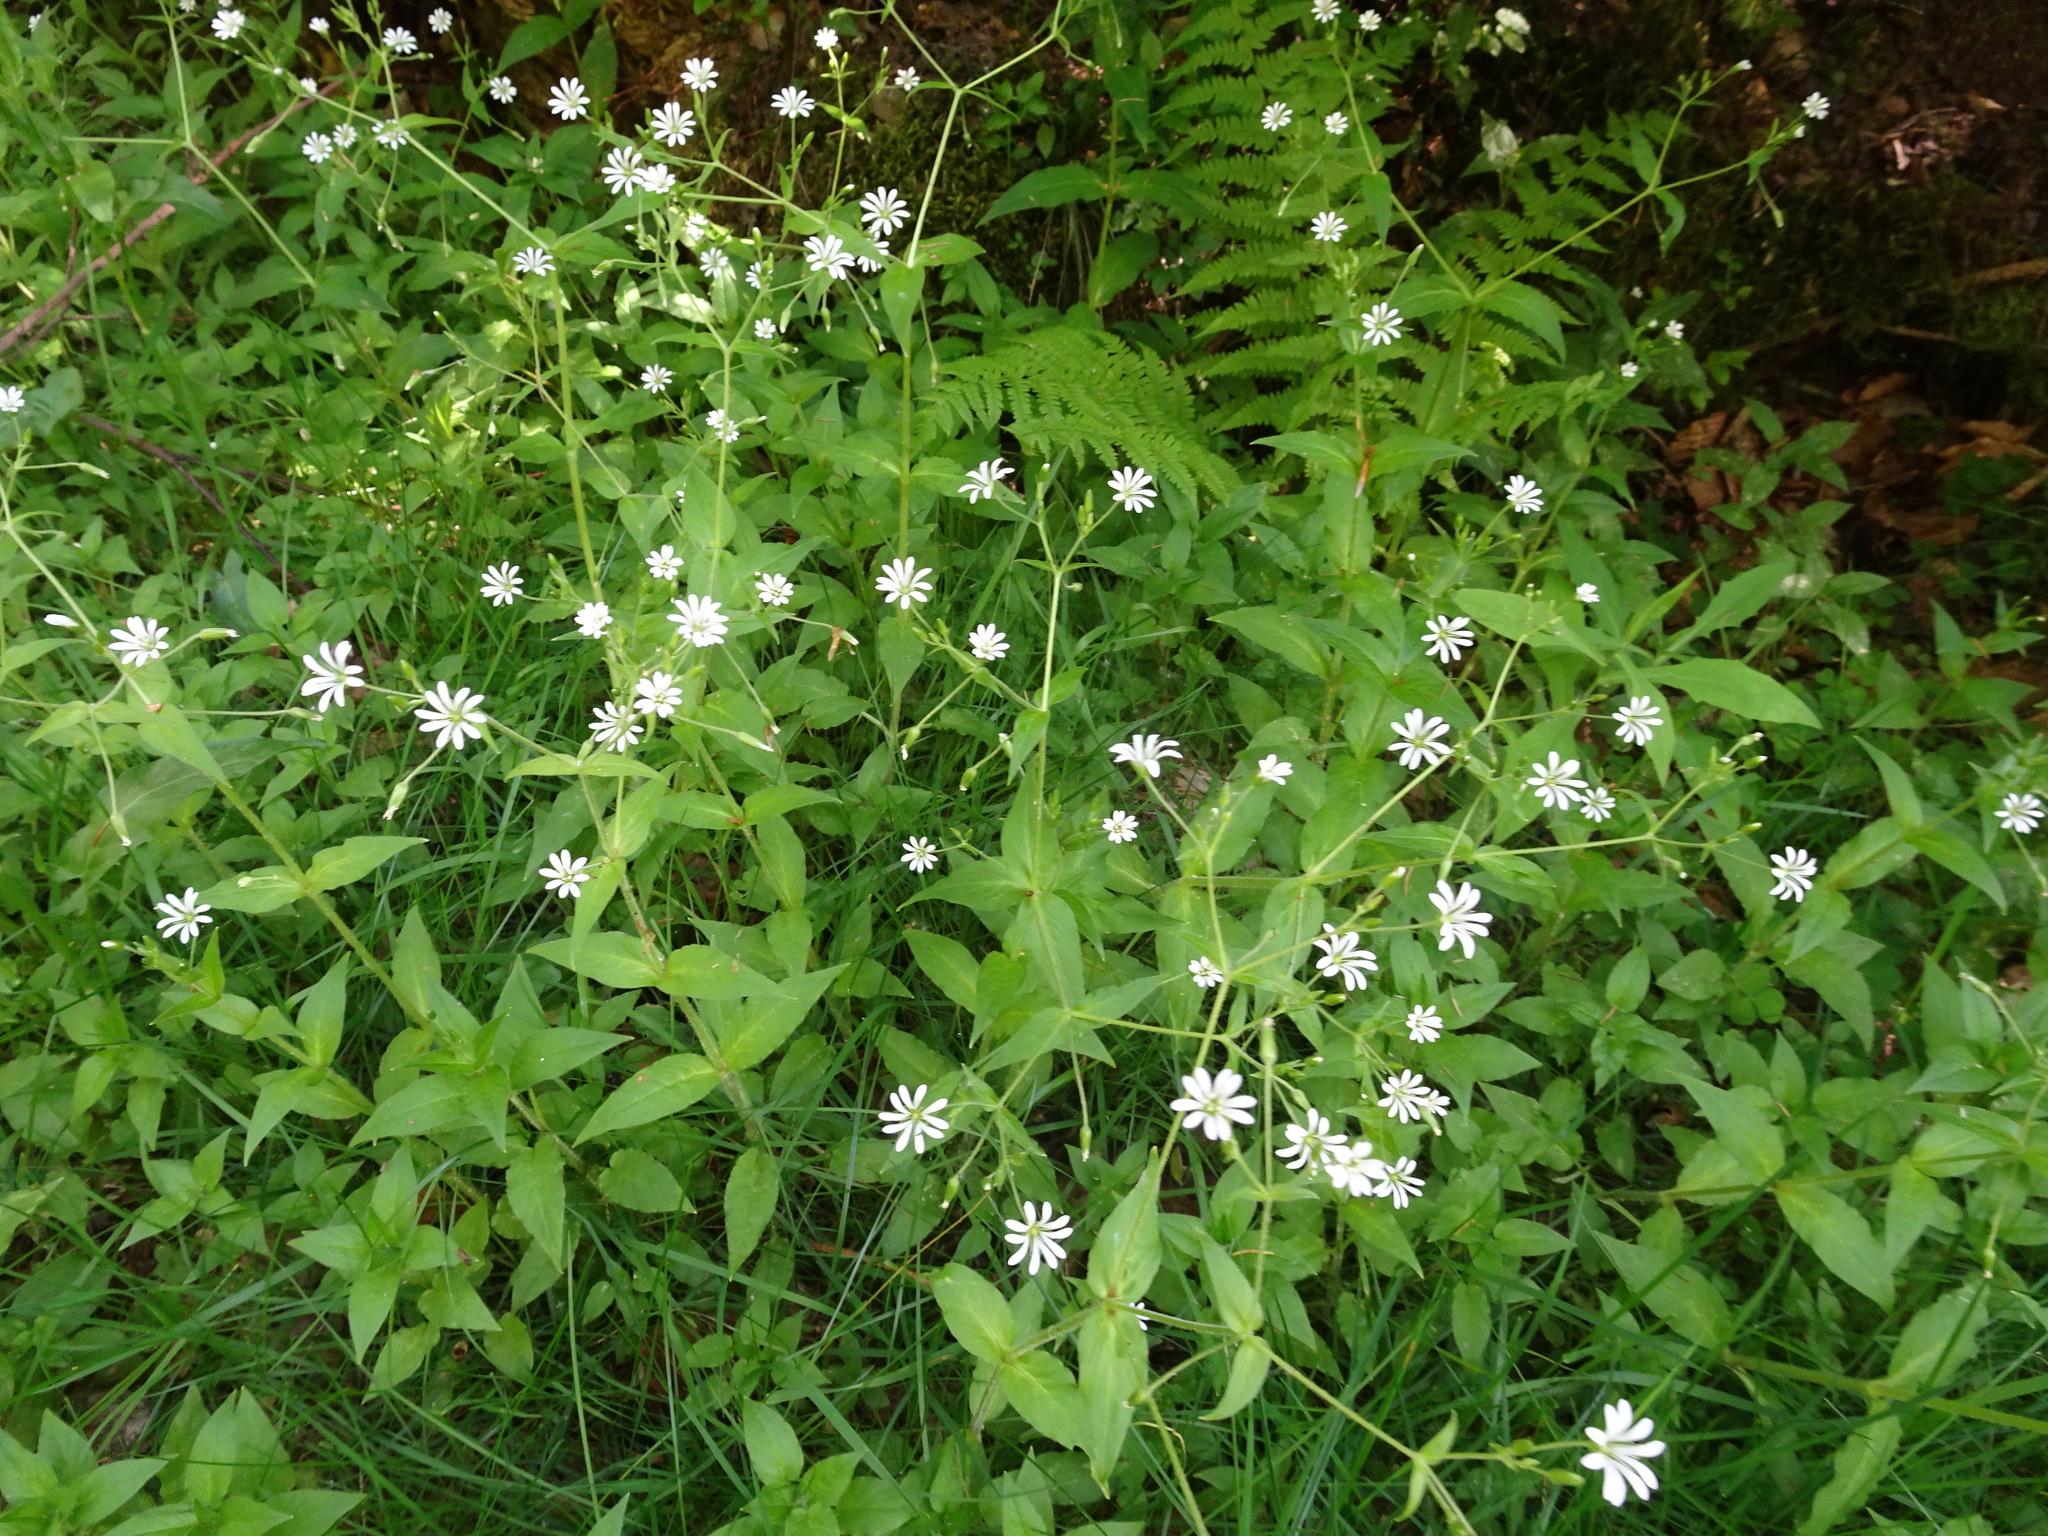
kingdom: Plantae
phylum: Tracheophyta
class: Magnoliopsida
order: Caryophyllales
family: Caryophyllaceae
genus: Stellaria
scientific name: Stellaria nemorum
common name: Wood stitchwort
